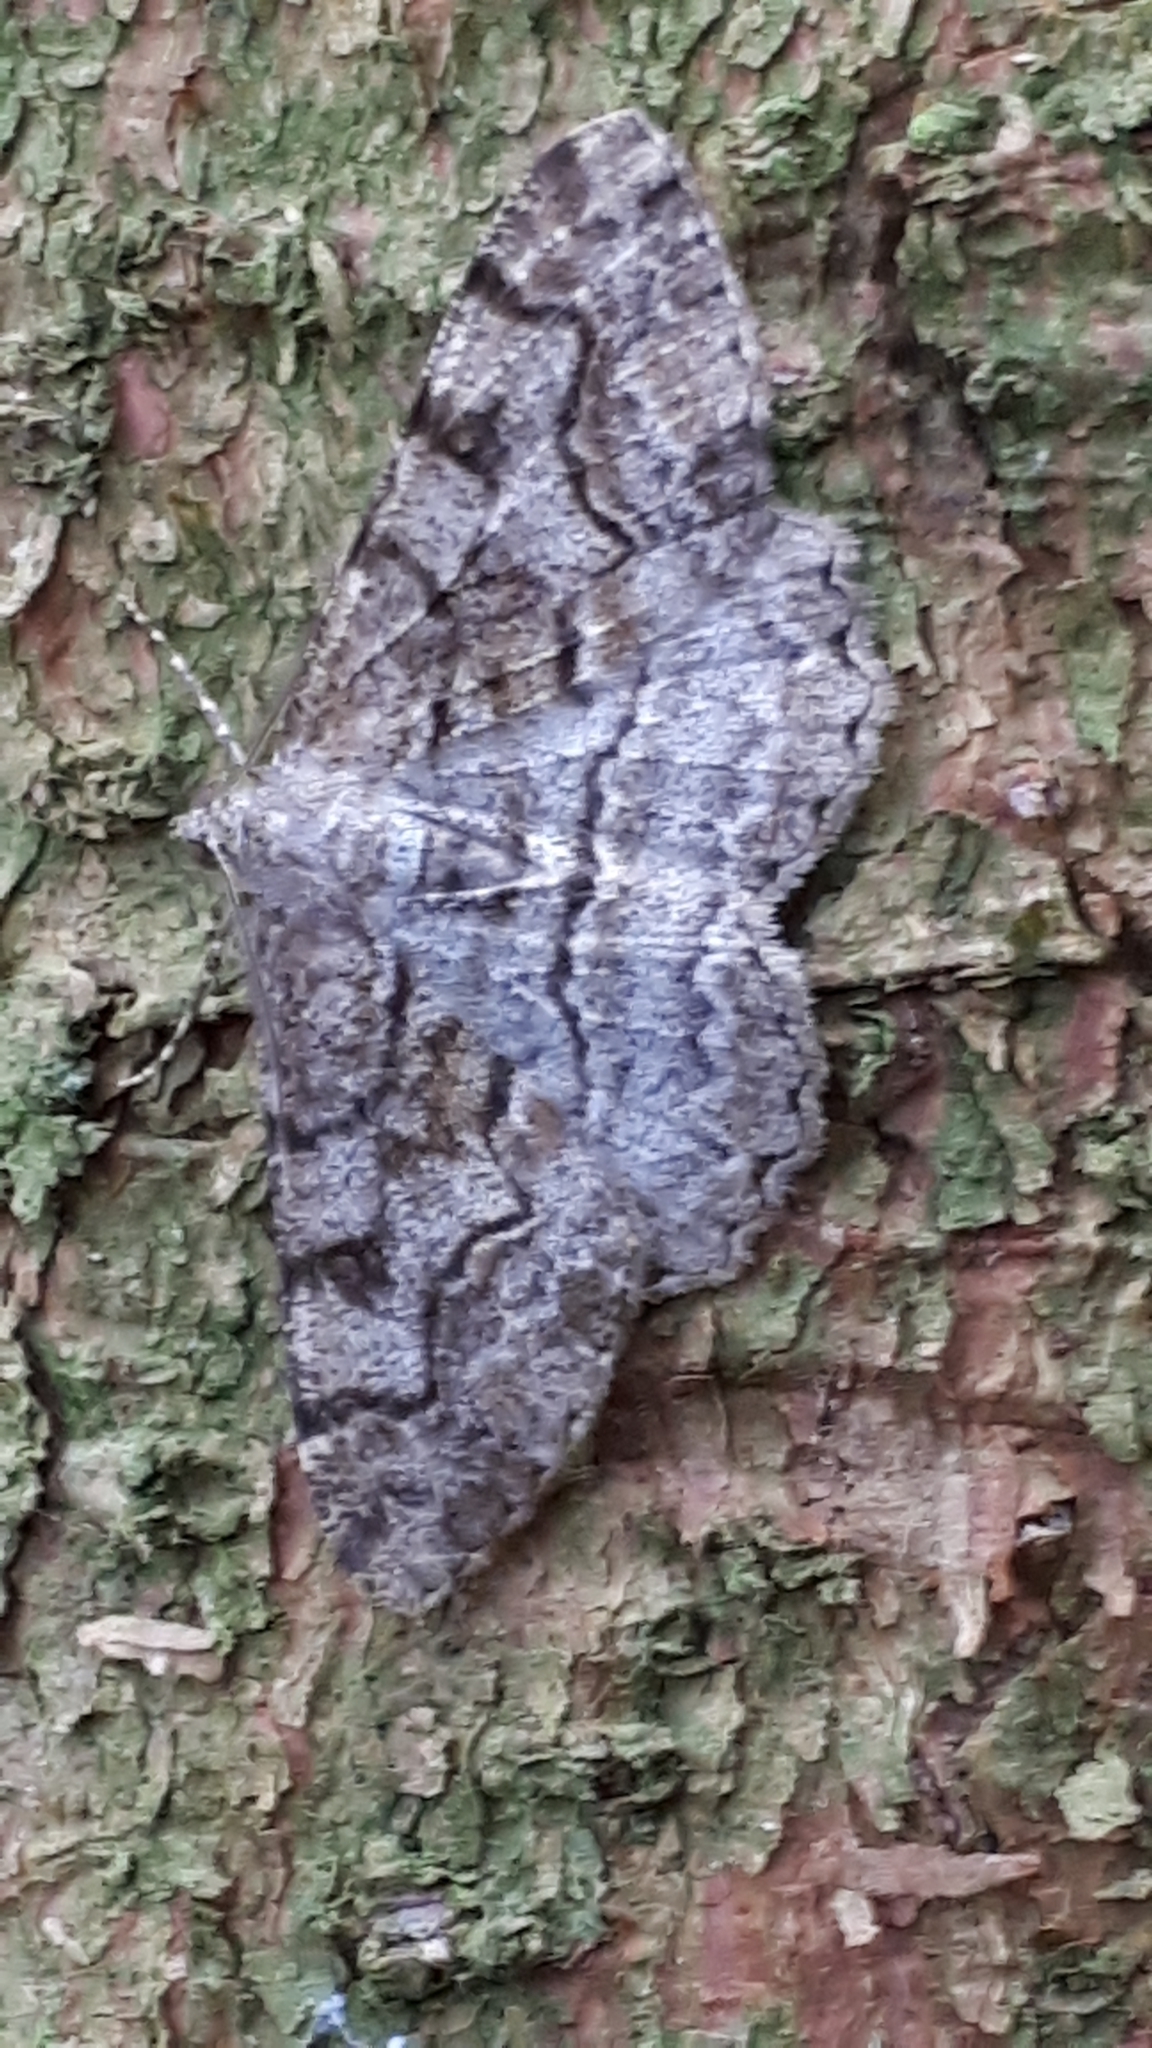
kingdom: Animalia
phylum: Arthropoda
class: Insecta
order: Lepidoptera
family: Geometridae
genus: Alcis
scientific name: Alcis repandata
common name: Mottled beauty
